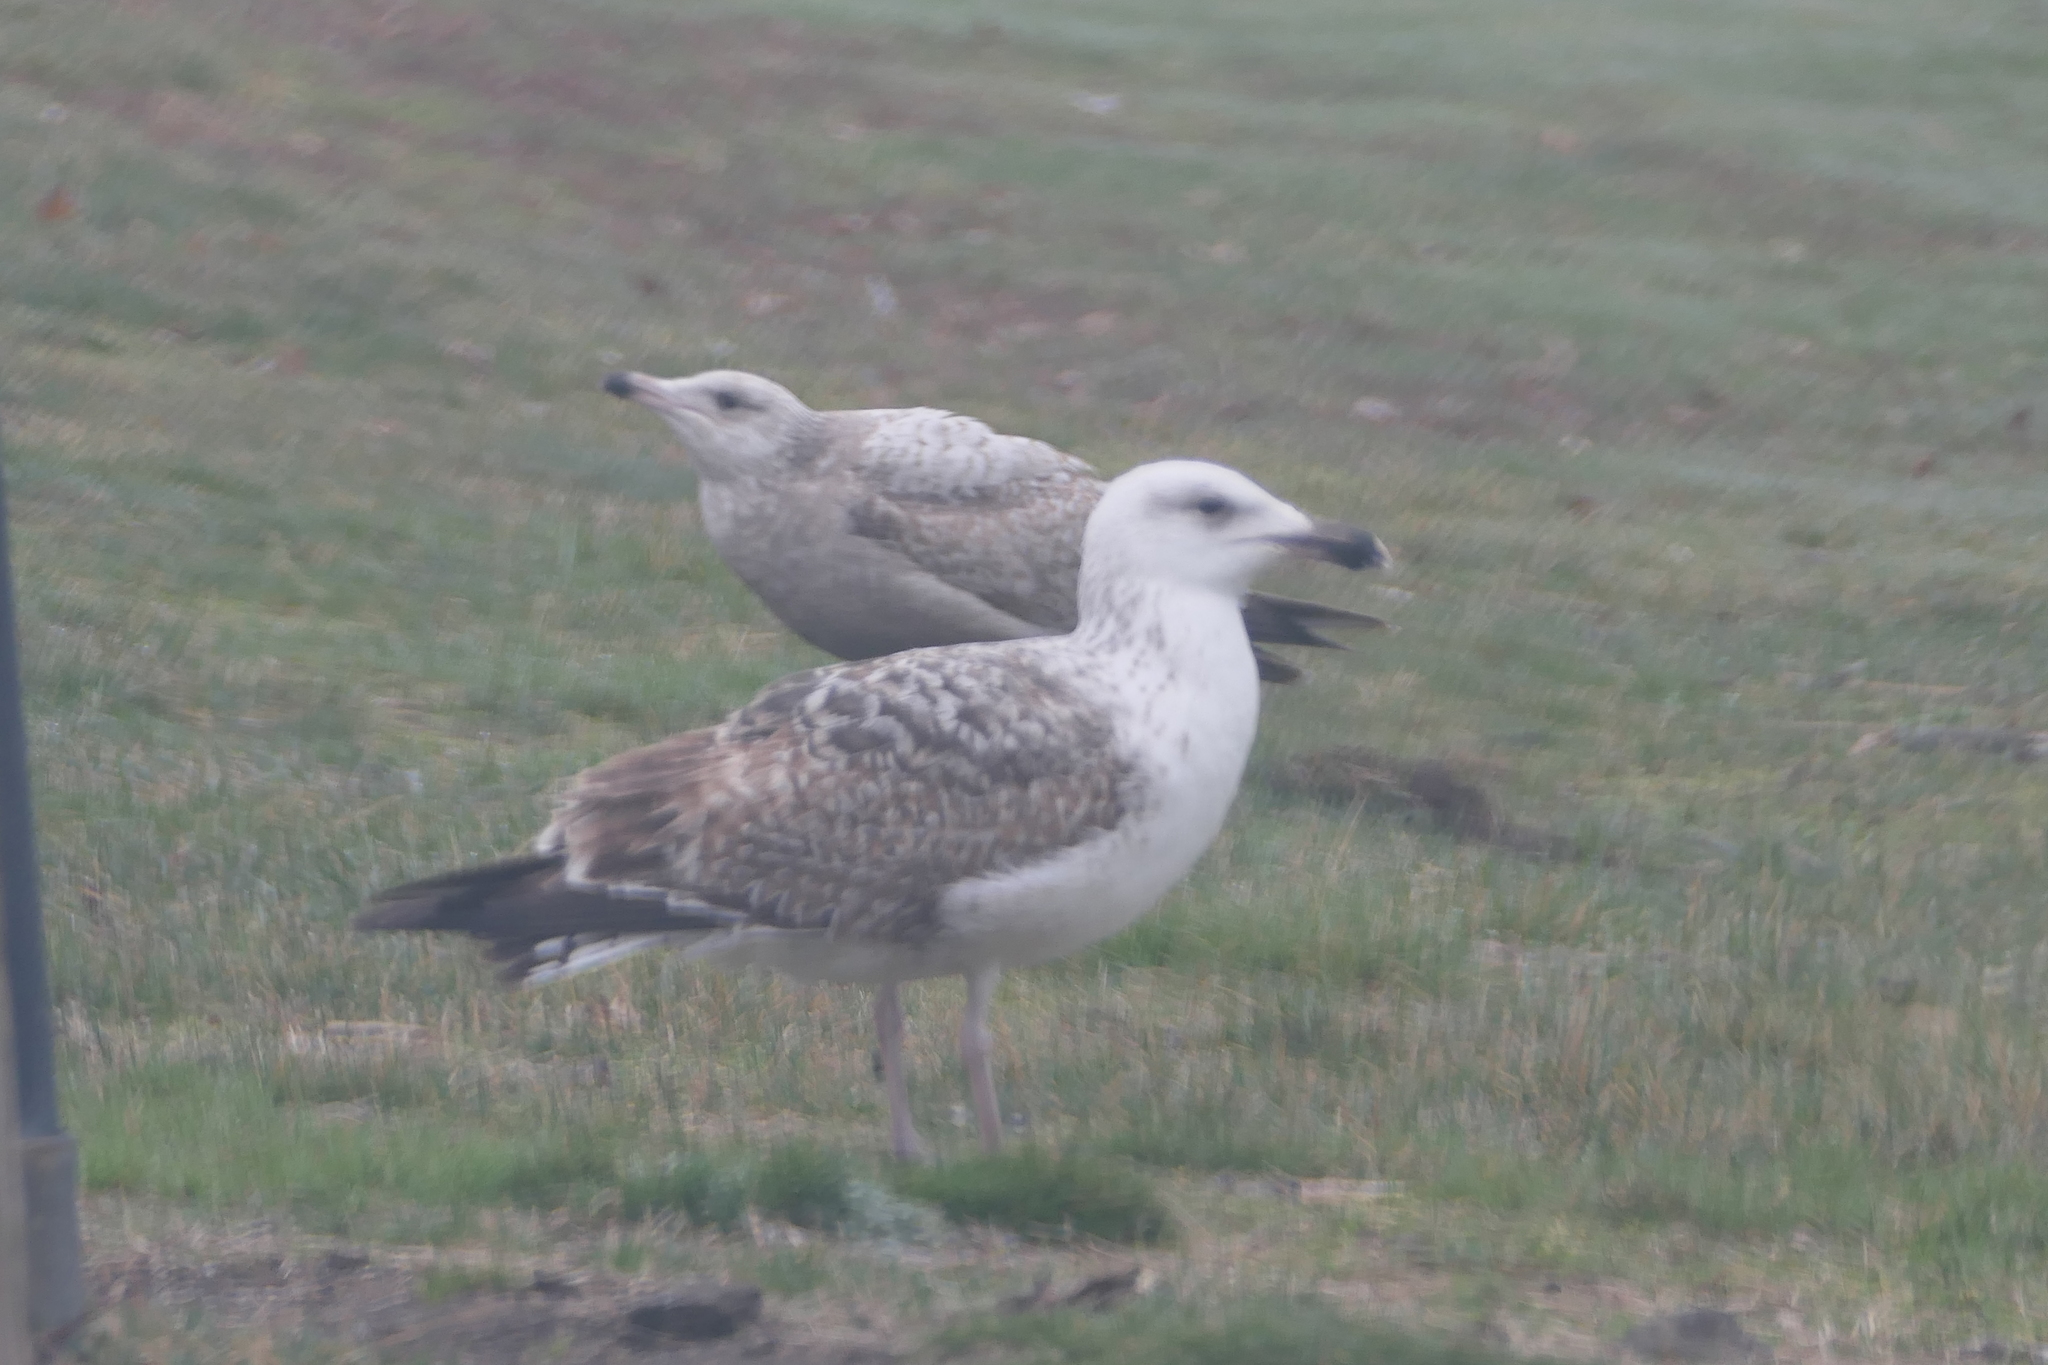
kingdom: Animalia
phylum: Chordata
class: Aves
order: Charadriiformes
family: Laridae
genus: Larus
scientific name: Larus marinus
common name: Great black-backed gull
